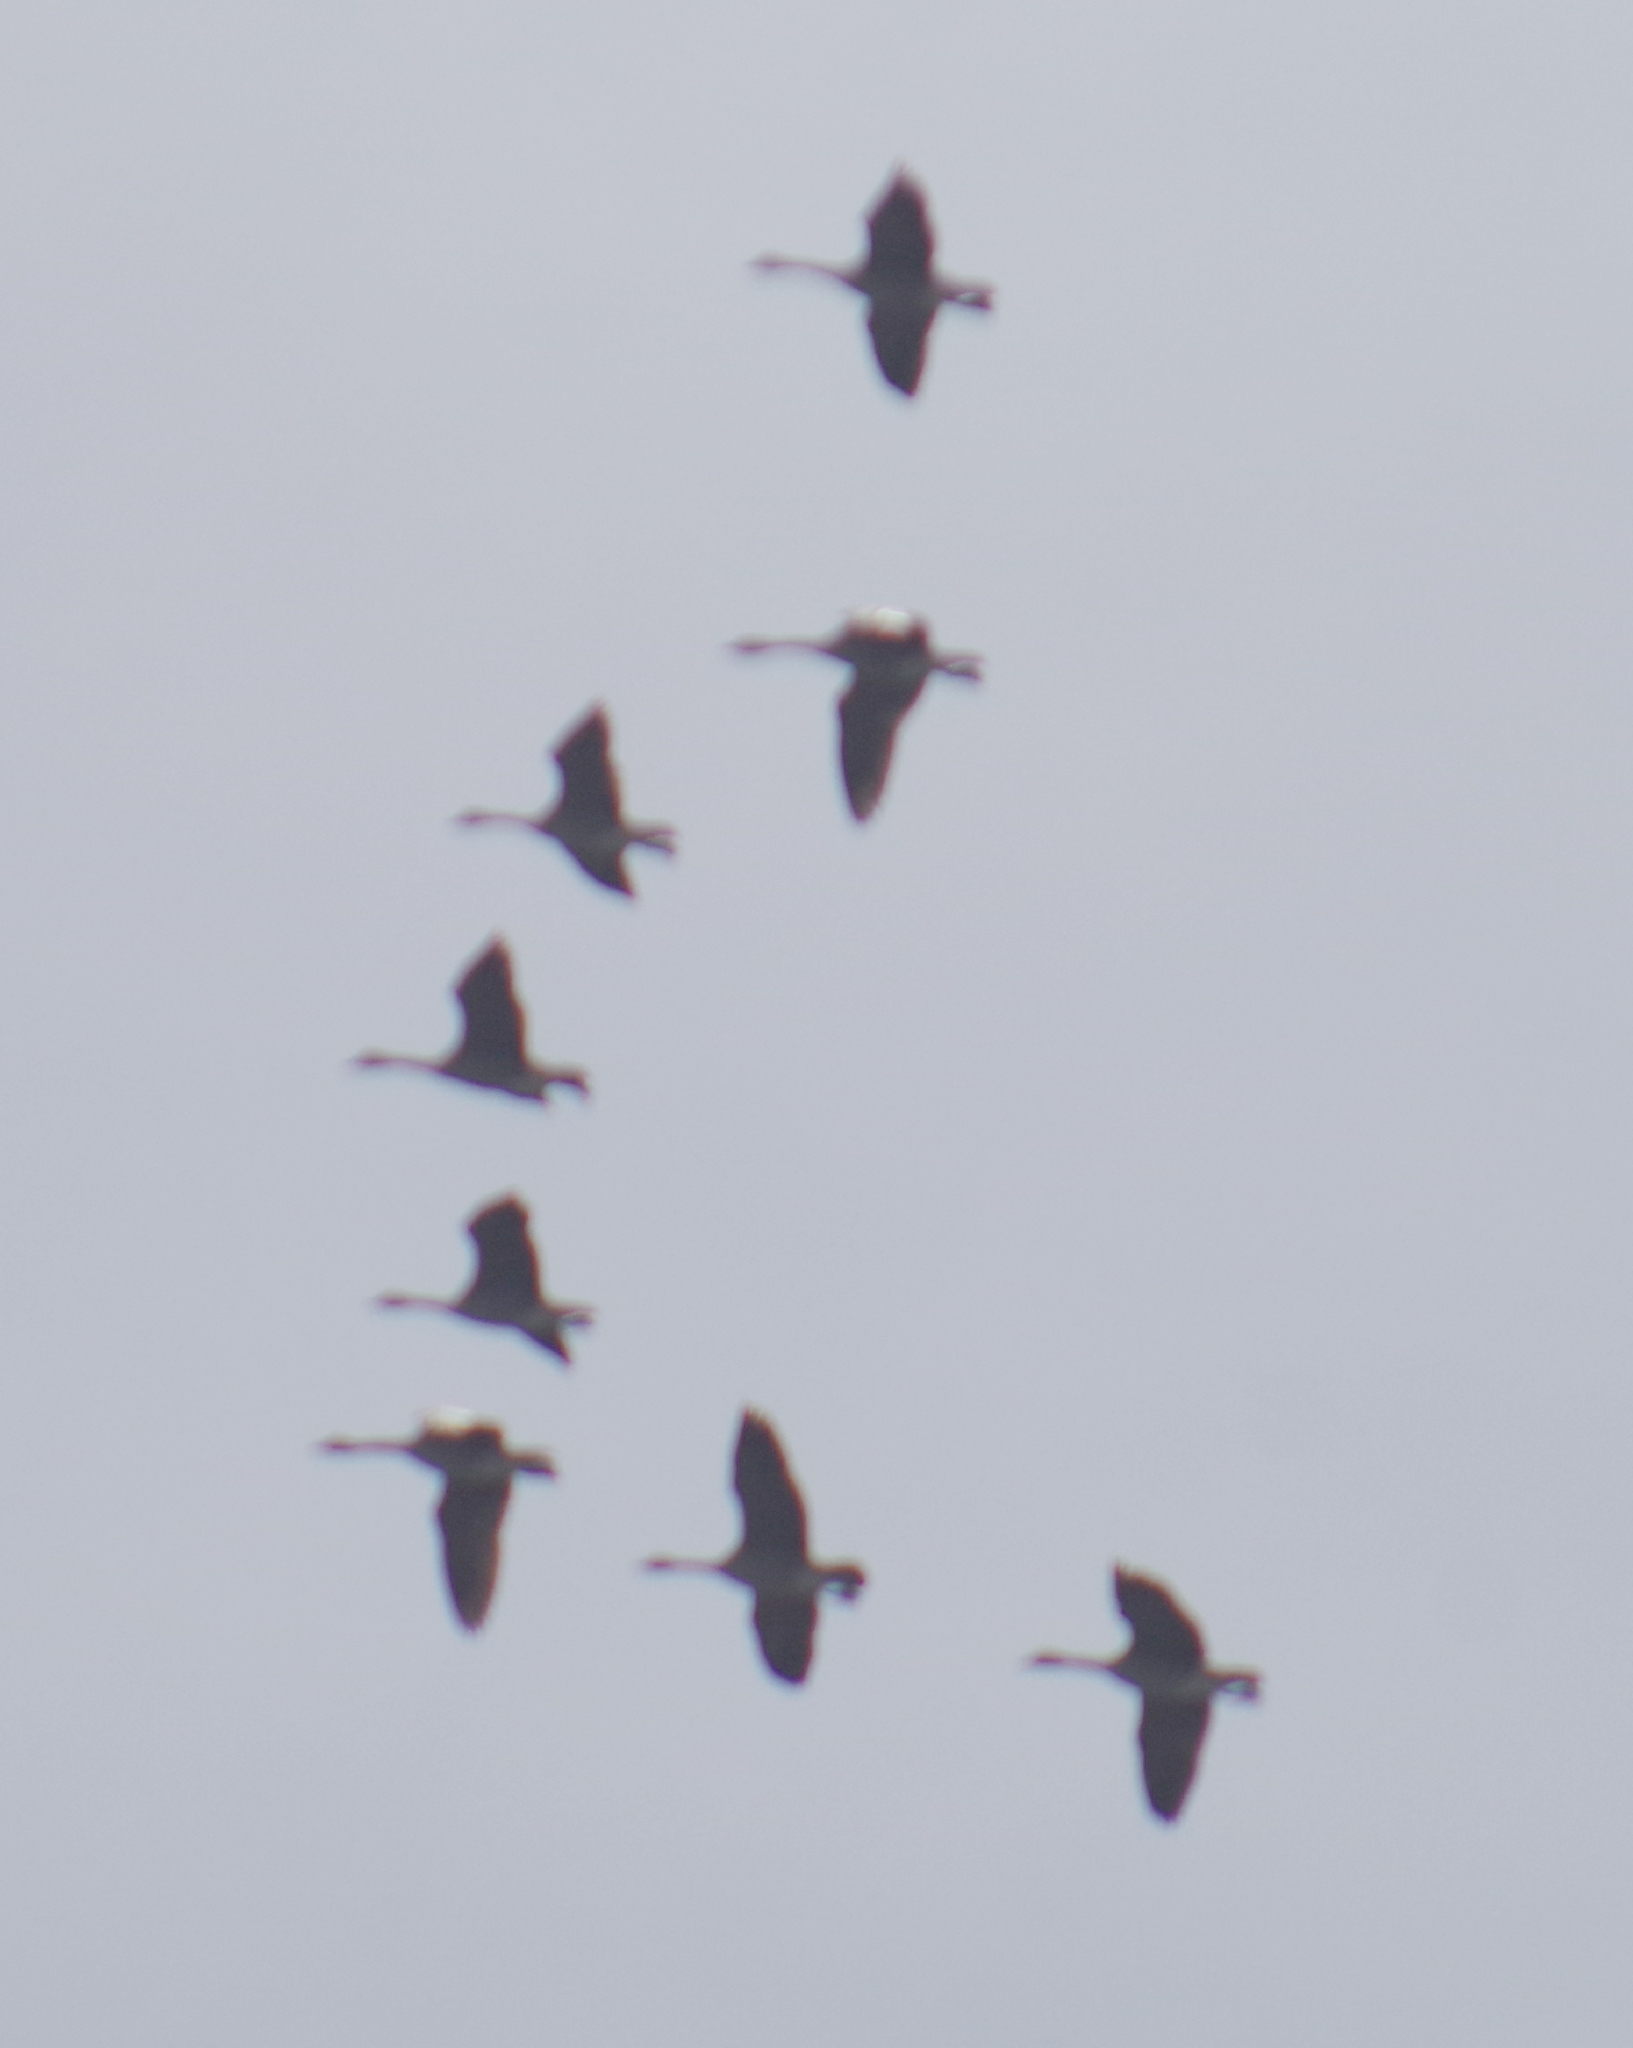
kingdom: Animalia
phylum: Chordata
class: Aves
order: Anseriformes
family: Anatidae
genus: Branta
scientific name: Branta canadensis
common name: Canada goose
